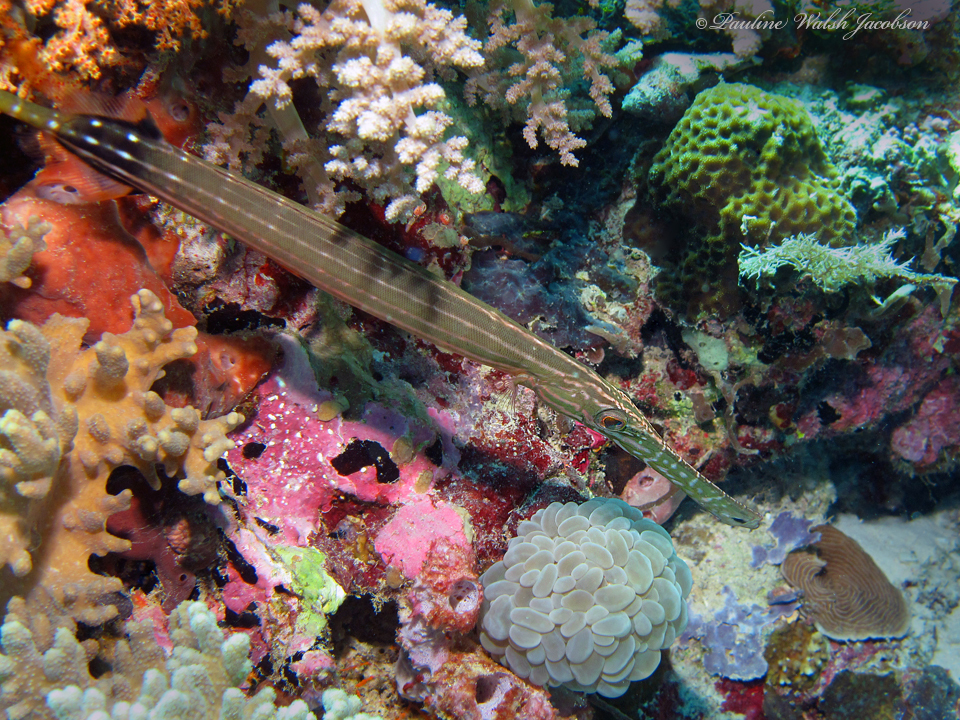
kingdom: Animalia
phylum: Chordata
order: Syngnathiformes
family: Aulostomidae
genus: Aulostomus
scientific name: Aulostomus chinensis
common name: Chinese trumpetfish
